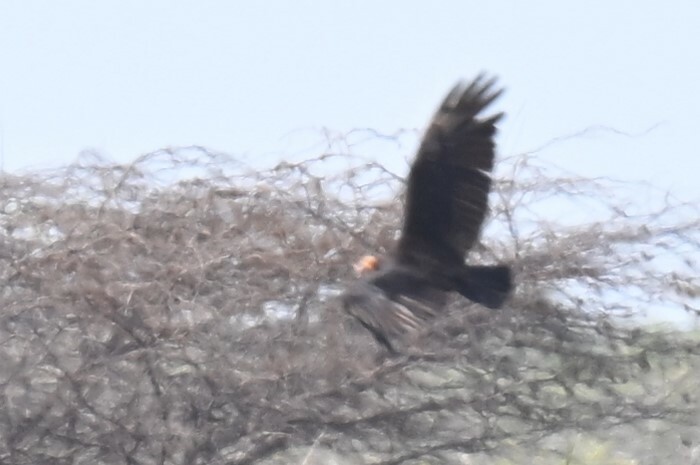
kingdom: Animalia
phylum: Chordata
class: Aves
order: Accipitriformes
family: Cathartidae
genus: Cathartes
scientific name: Cathartes burrovianus
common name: Lesser yellow-headed vulture
